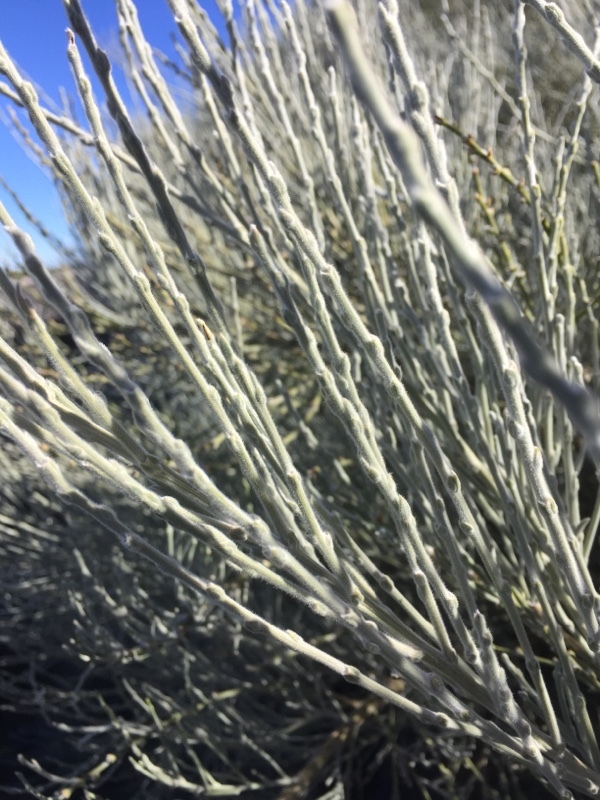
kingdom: Plantae
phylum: Tracheophyta
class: Magnoliopsida
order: Fabales
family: Fabaceae
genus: Cytisus
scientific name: Cytisus supranubius
